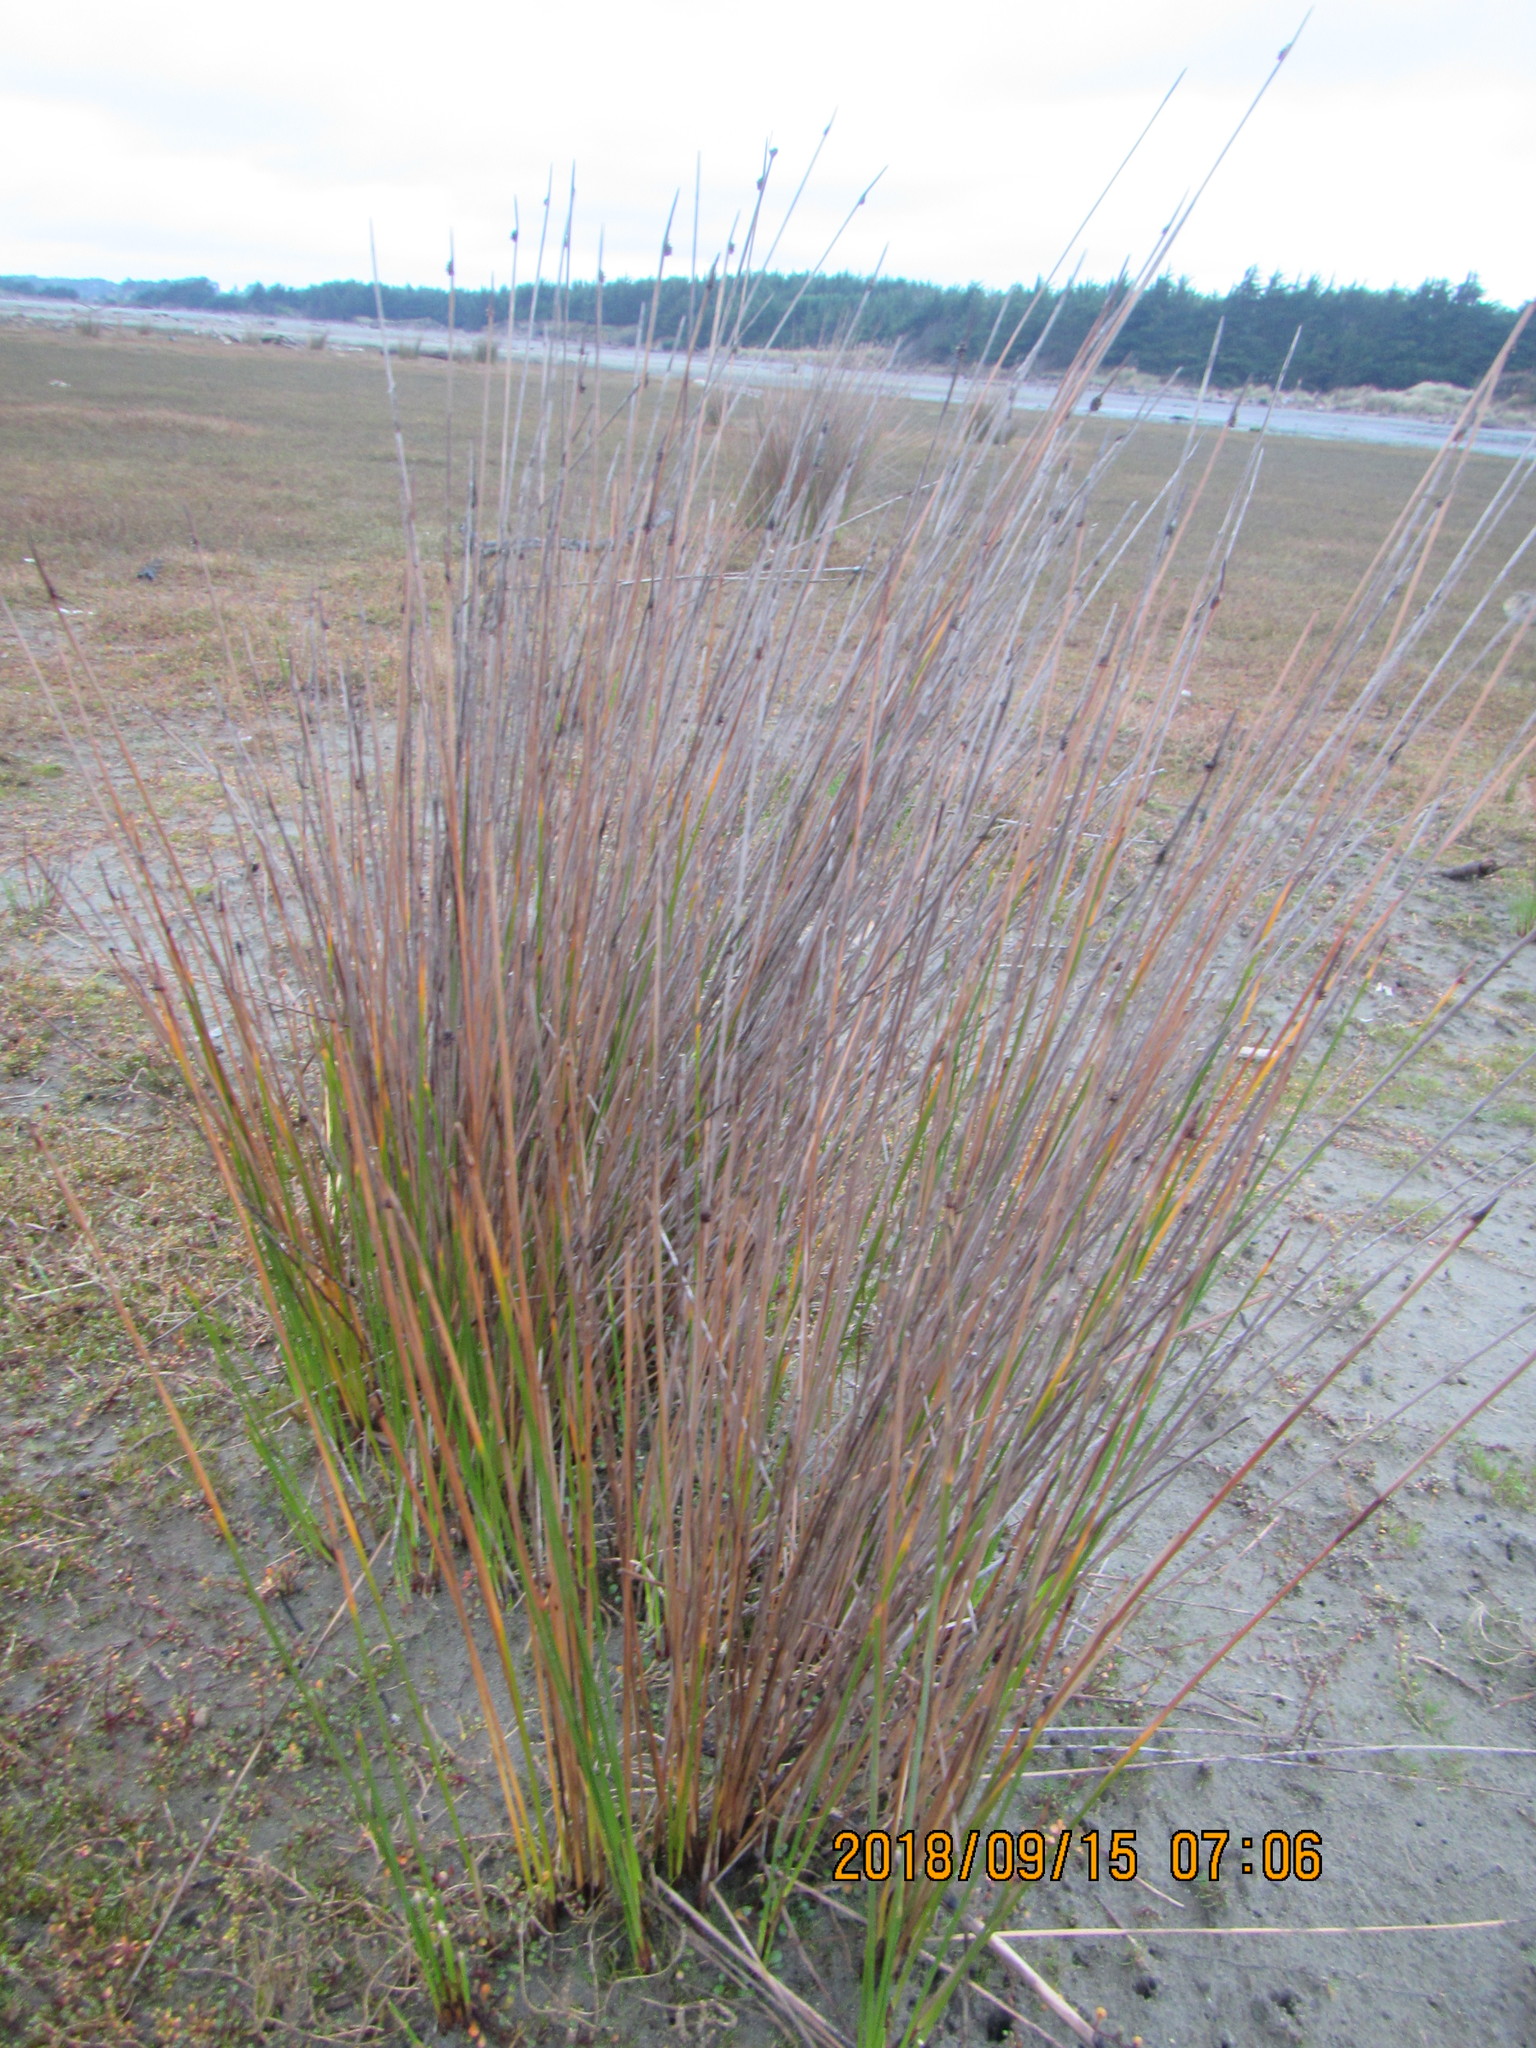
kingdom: Plantae
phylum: Tracheophyta
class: Liliopsida
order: Poales
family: Cyperaceae
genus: Ficinia
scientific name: Ficinia nodosa
